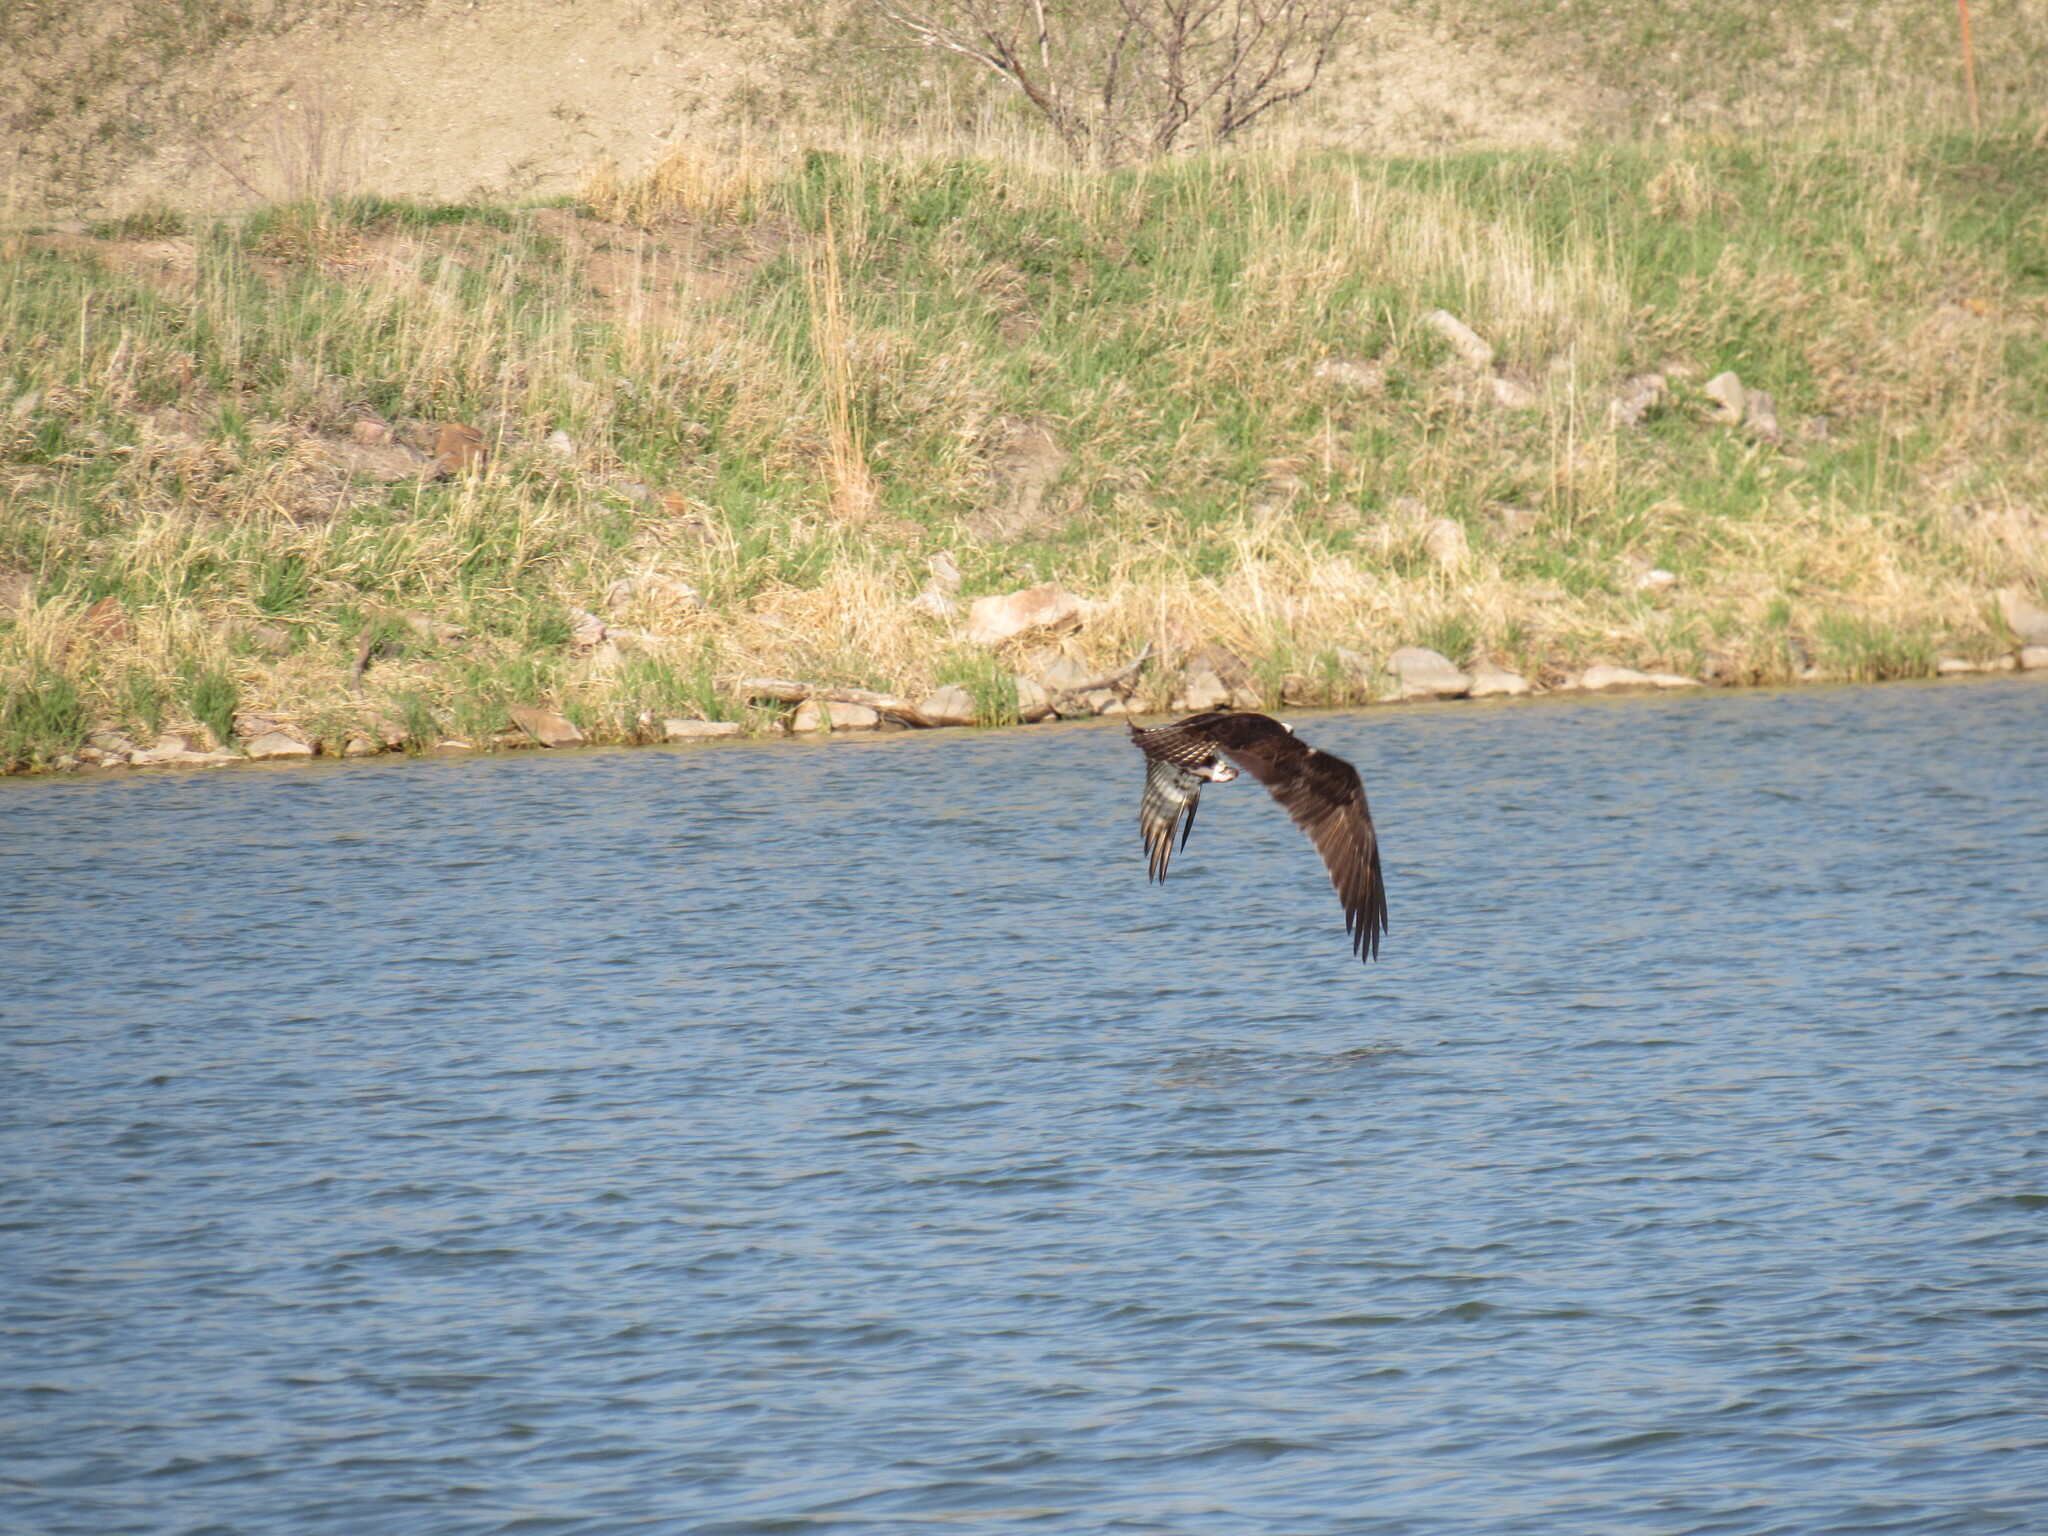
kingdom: Animalia
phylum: Chordata
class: Aves
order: Accipitriformes
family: Pandionidae
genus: Pandion
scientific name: Pandion haliaetus
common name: Osprey
